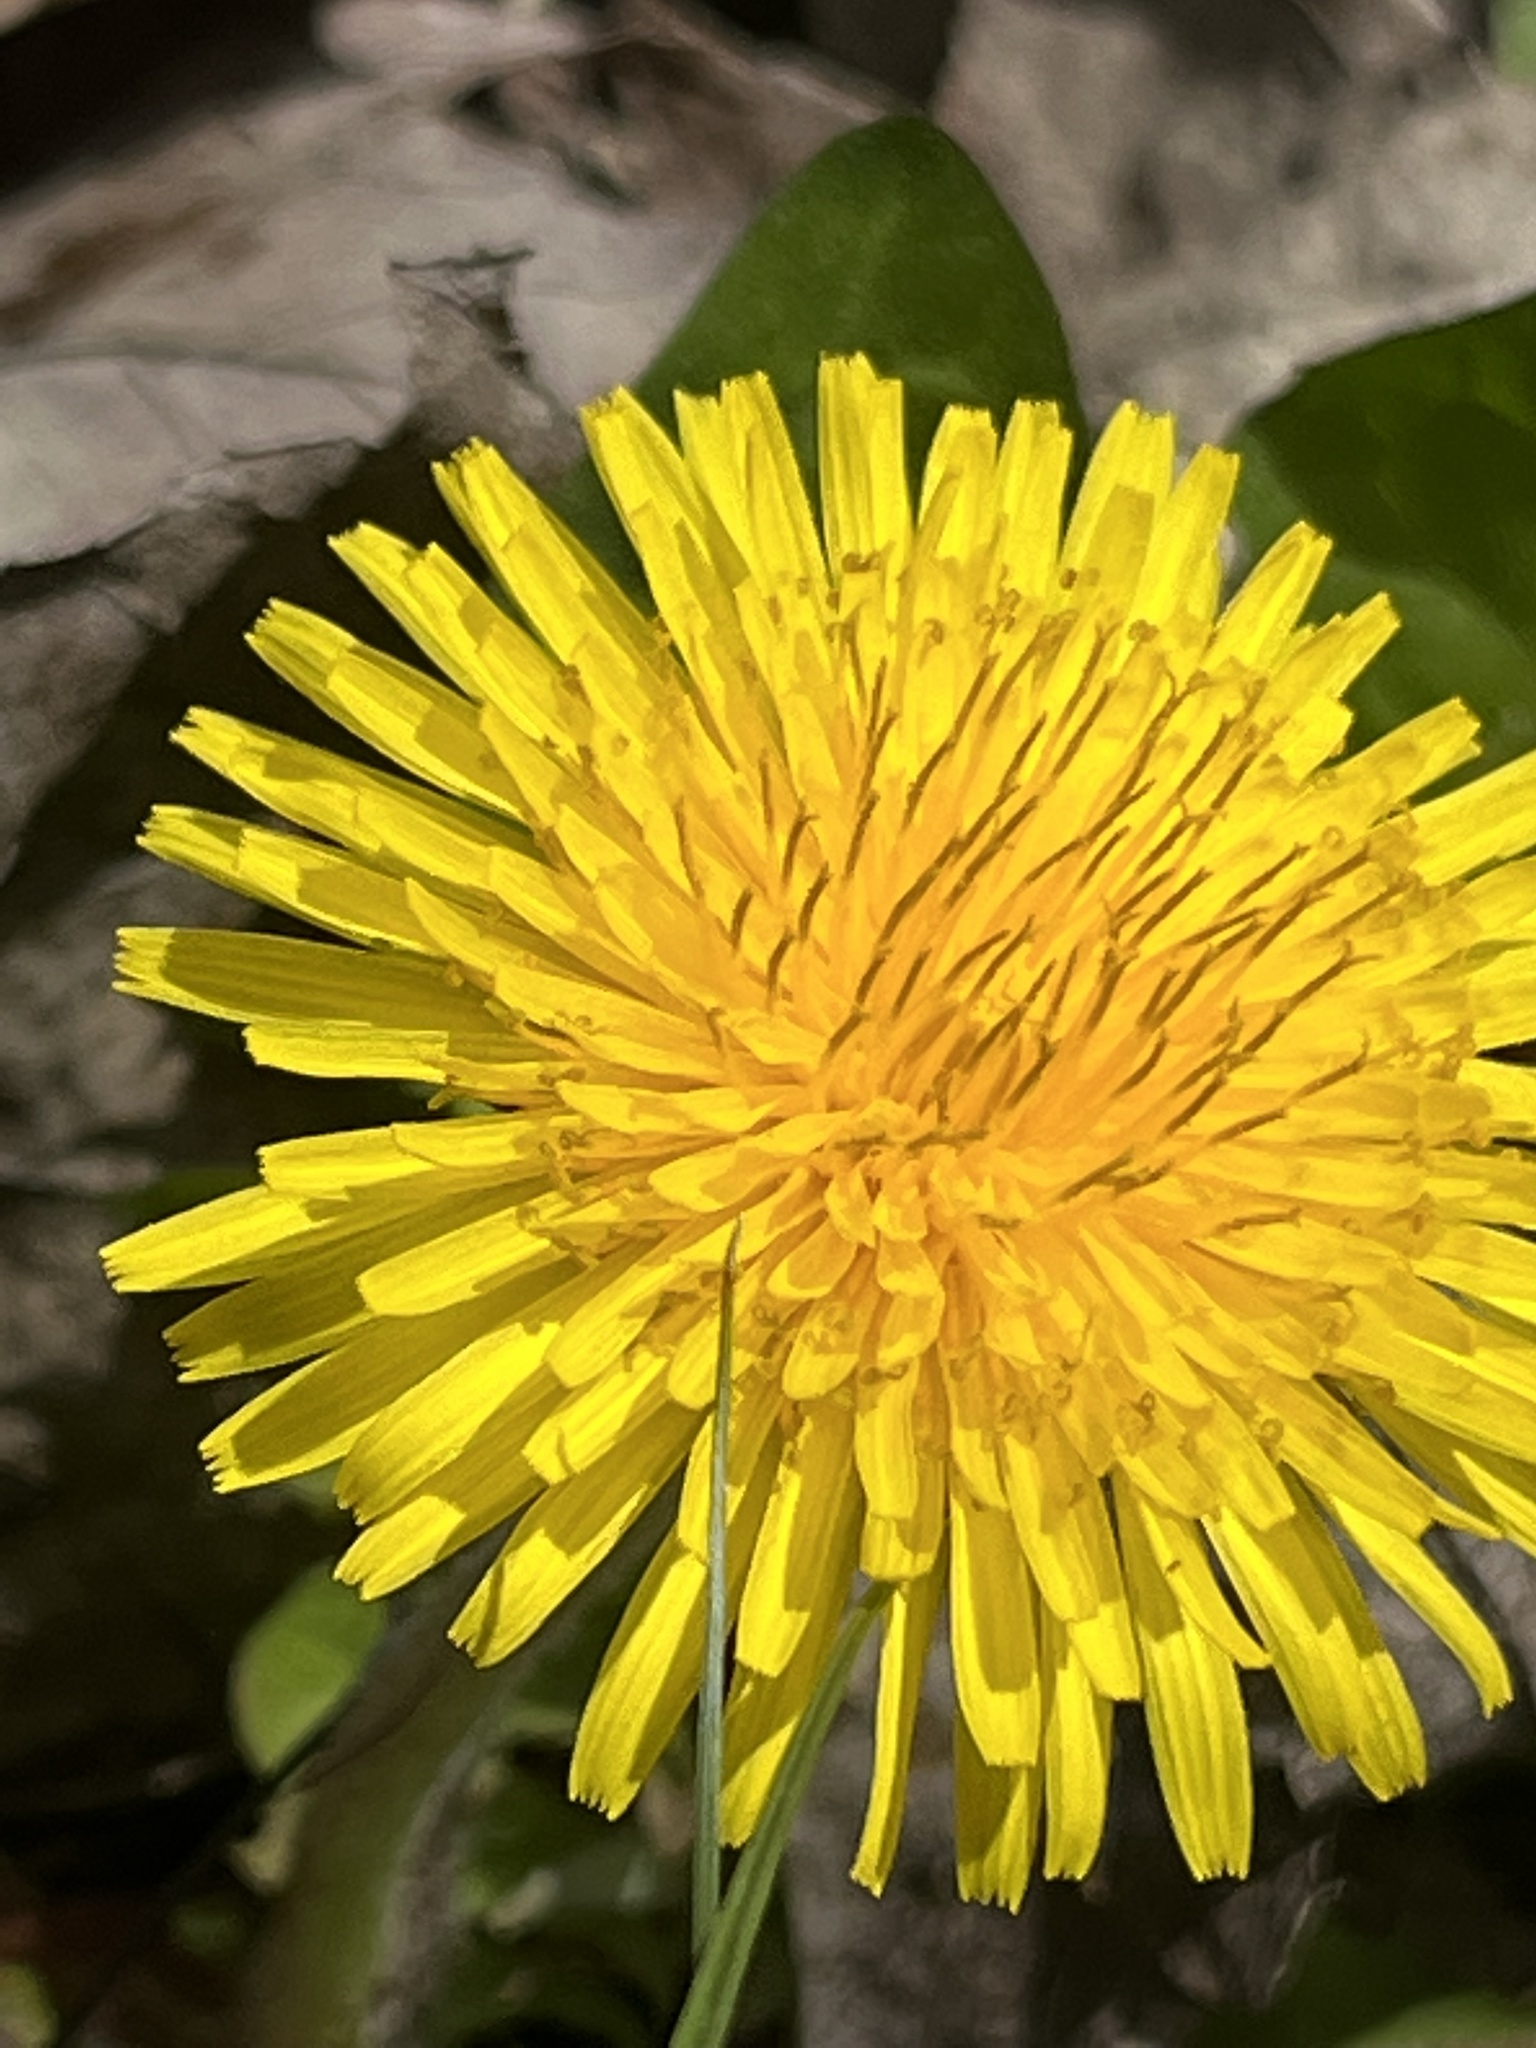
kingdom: Plantae
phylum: Tracheophyta
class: Magnoliopsida
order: Asterales
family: Asteraceae
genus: Taraxacum
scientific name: Taraxacum officinale
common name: Common dandelion
